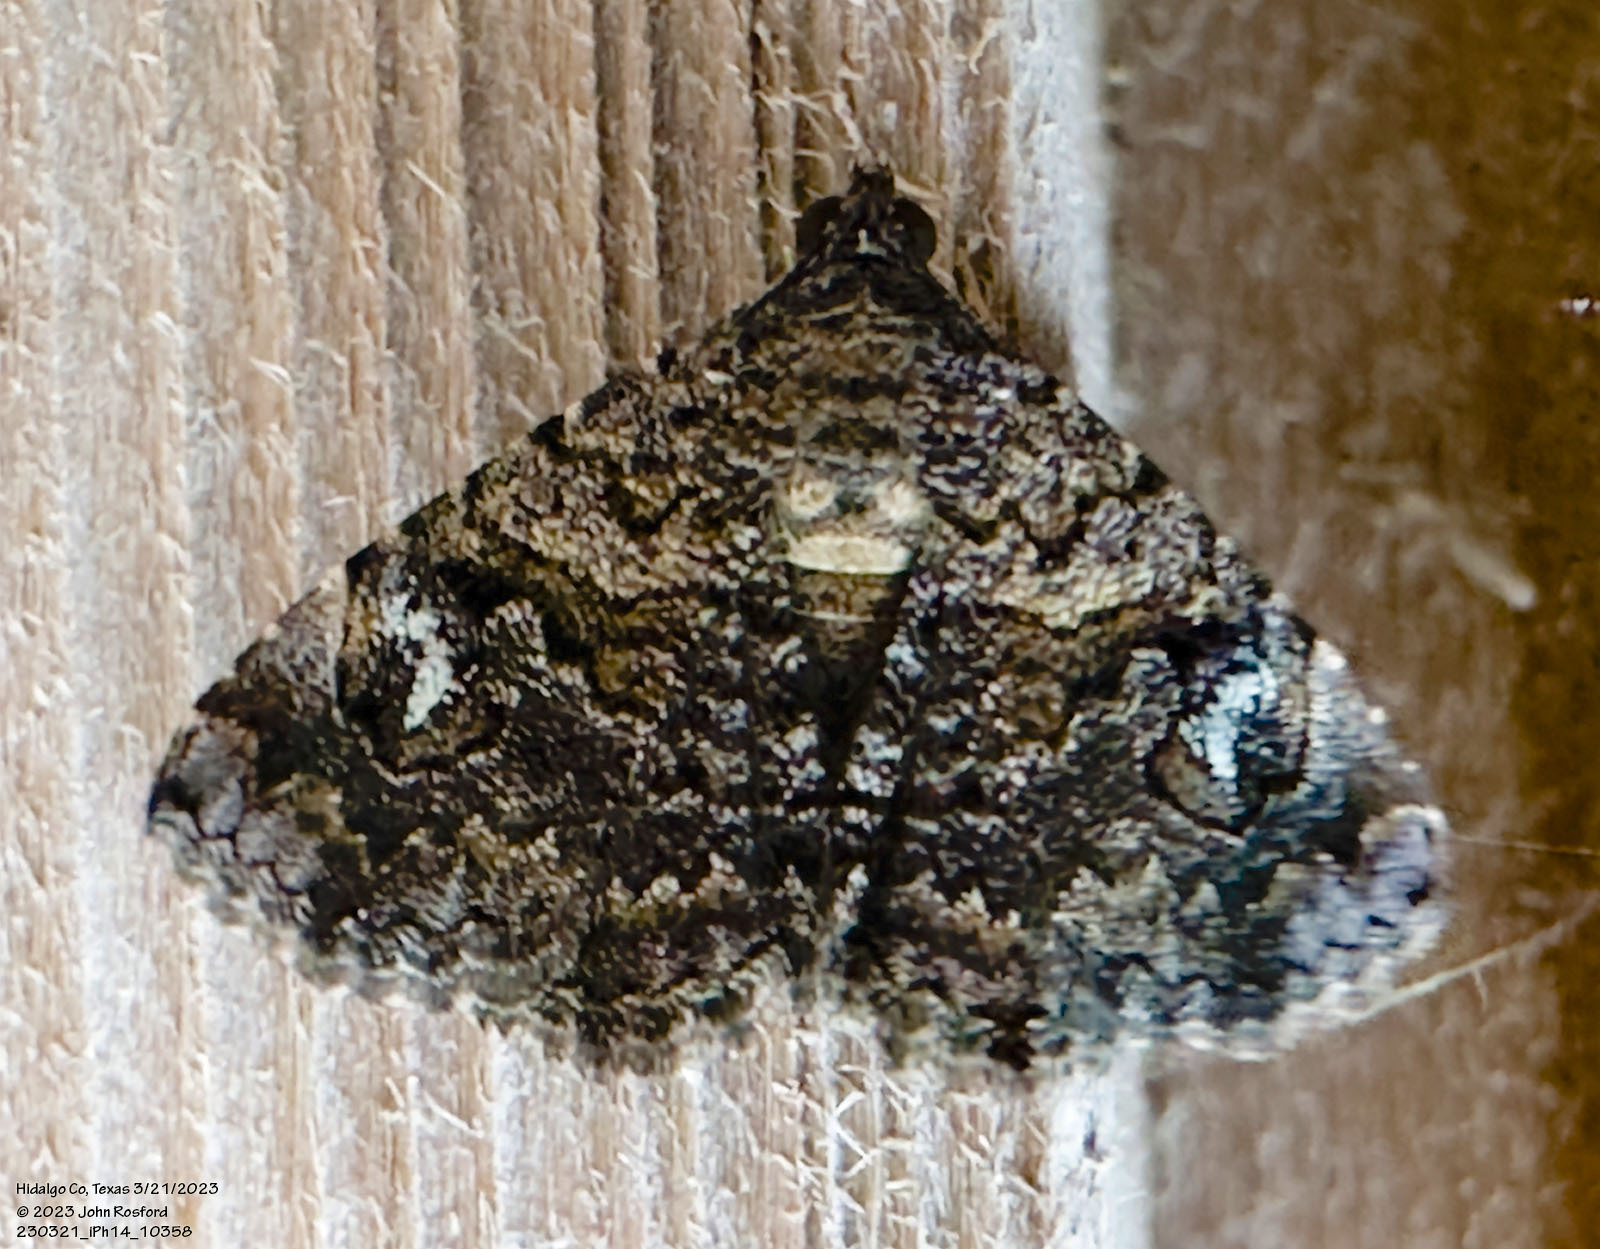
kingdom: Animalia
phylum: Arthropoda
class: Insecta
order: Lepidoptera
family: Erebidae
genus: Toxonprucha
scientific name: Toxonprucha excavata
